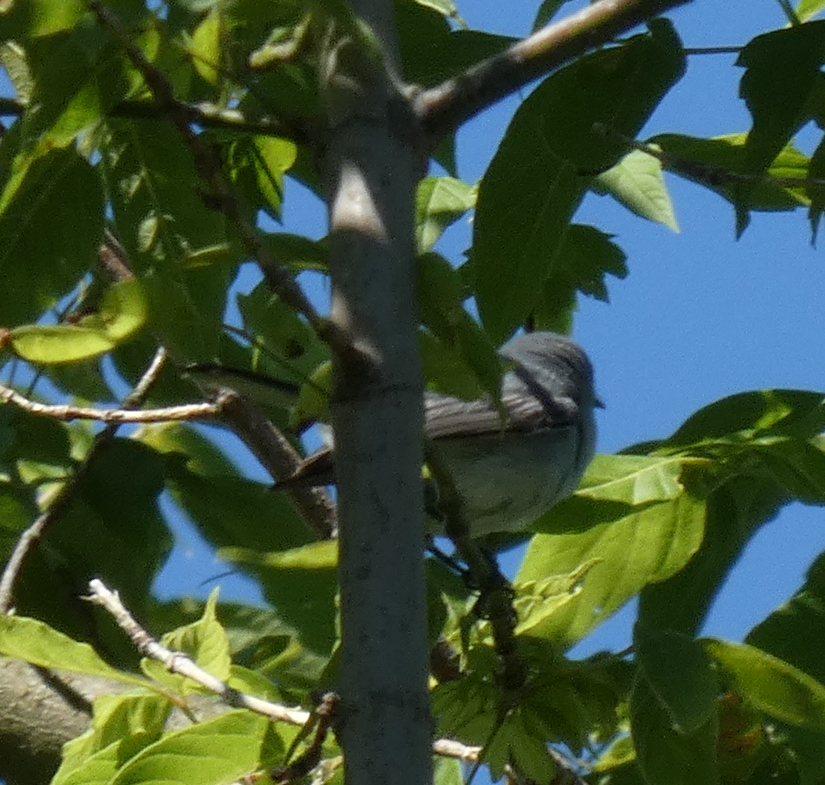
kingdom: Animalia
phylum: Chordata
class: Aves
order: Passeriformes
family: Polioptilidae
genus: Polioptila
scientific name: Polioptila caerulea
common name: Blue-gray gnatcatcher
